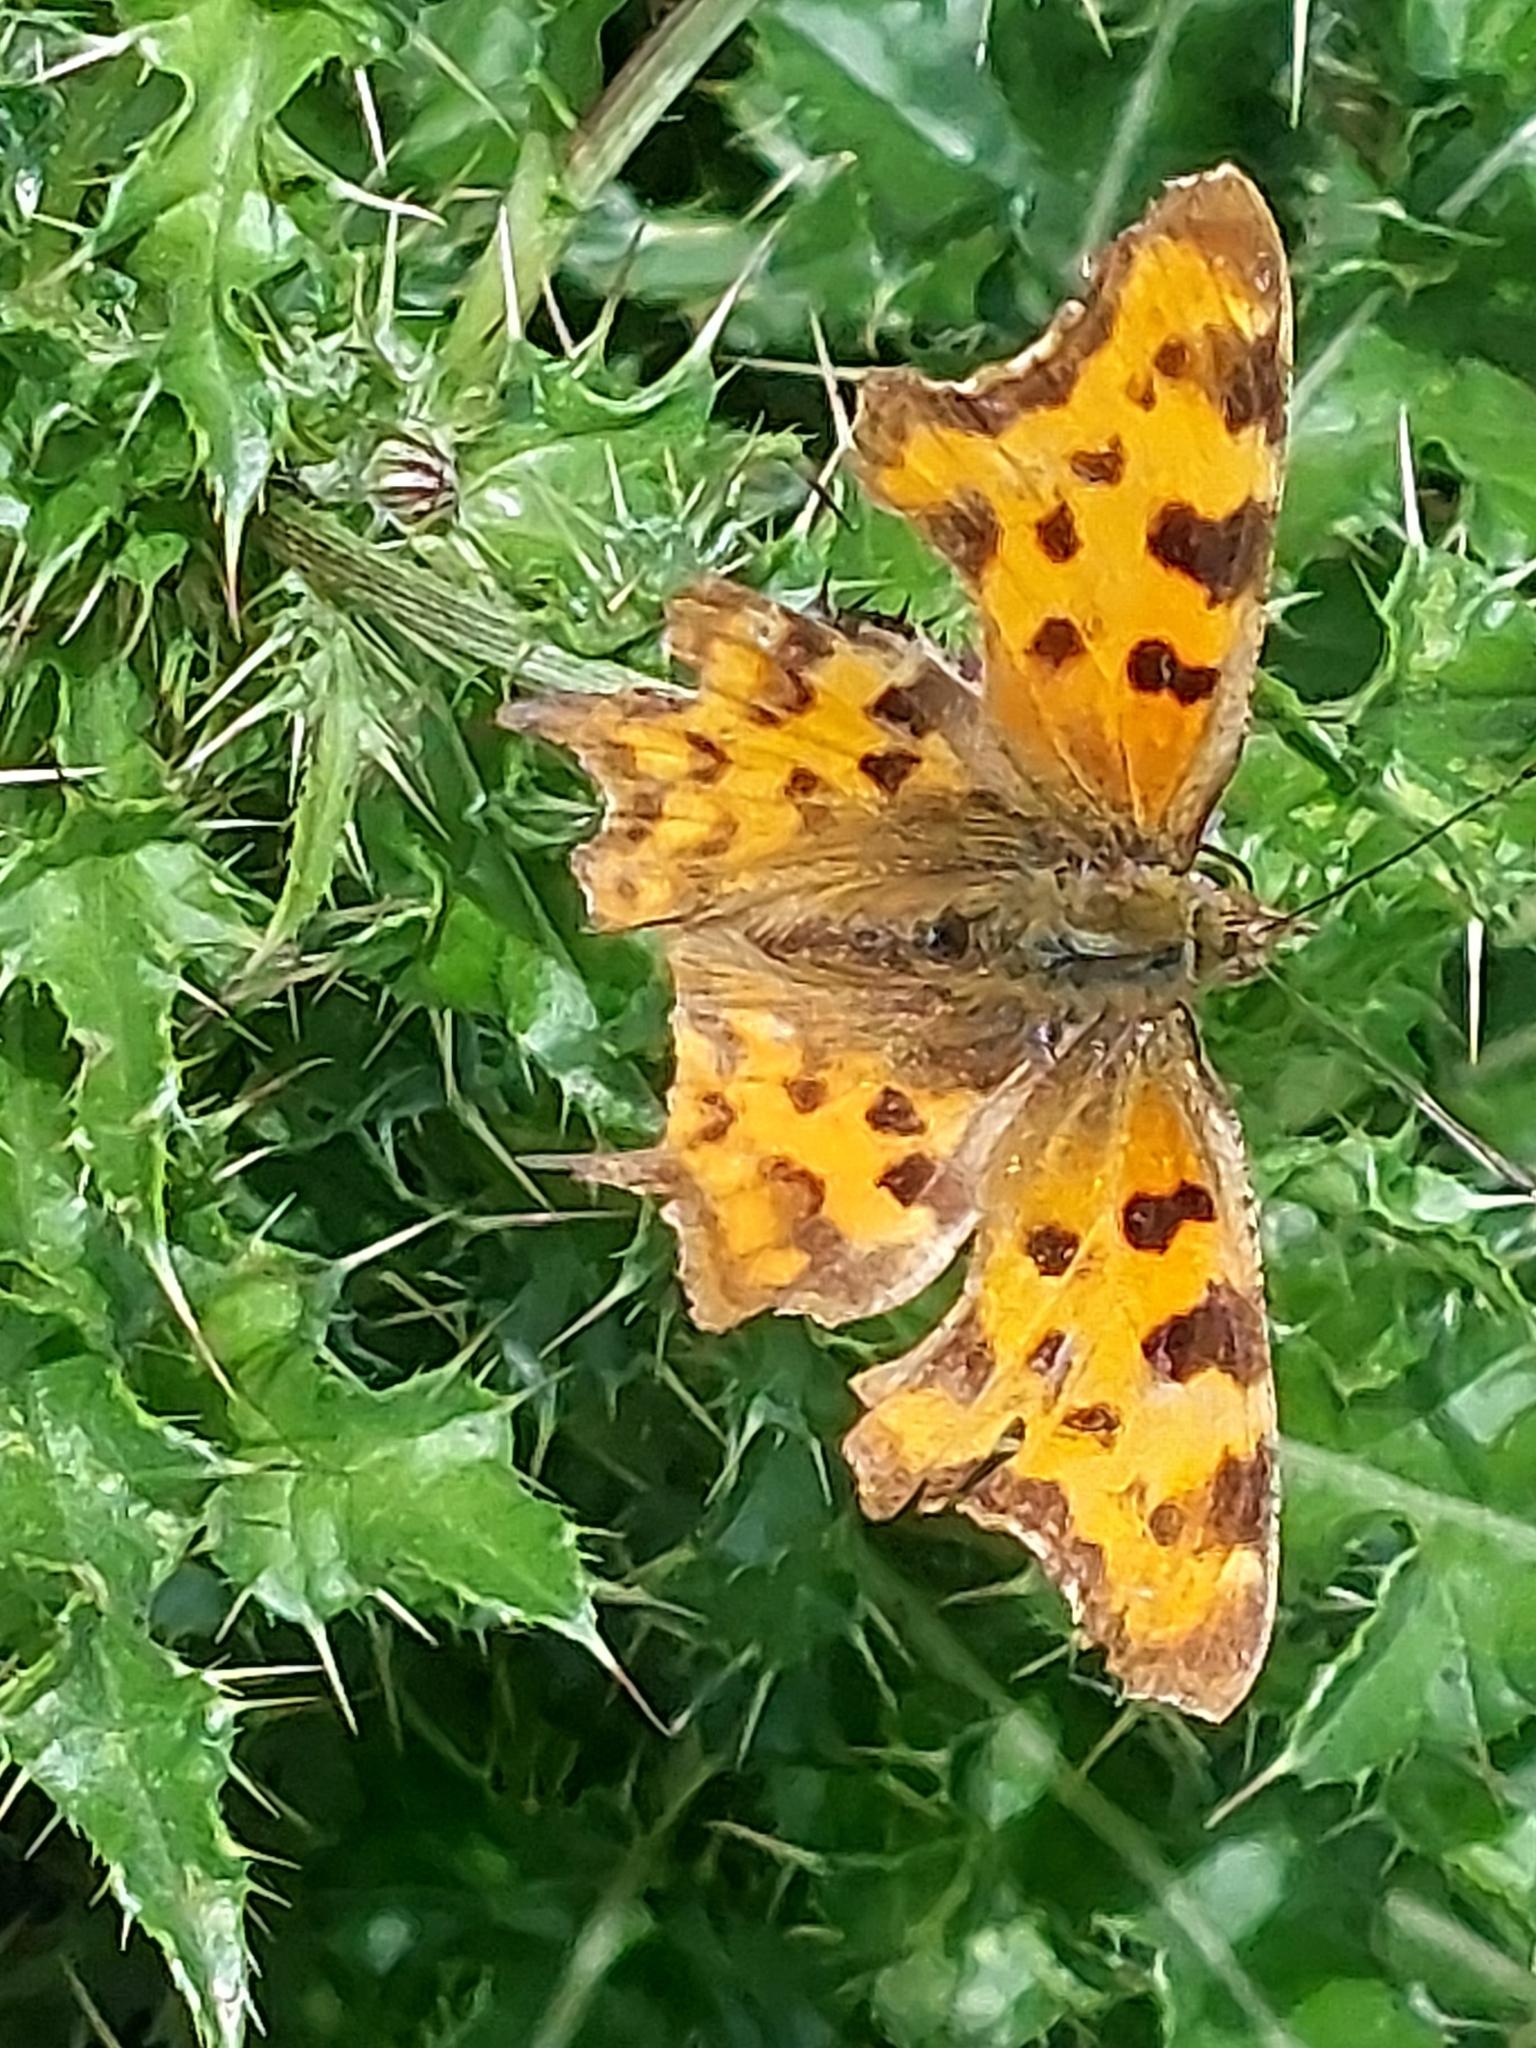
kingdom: Animalia
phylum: Arthropoda
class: Insecta
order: Lepidoptera
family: Nymphalidae
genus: Polygonia
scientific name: Polygonia c-album
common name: Comma
